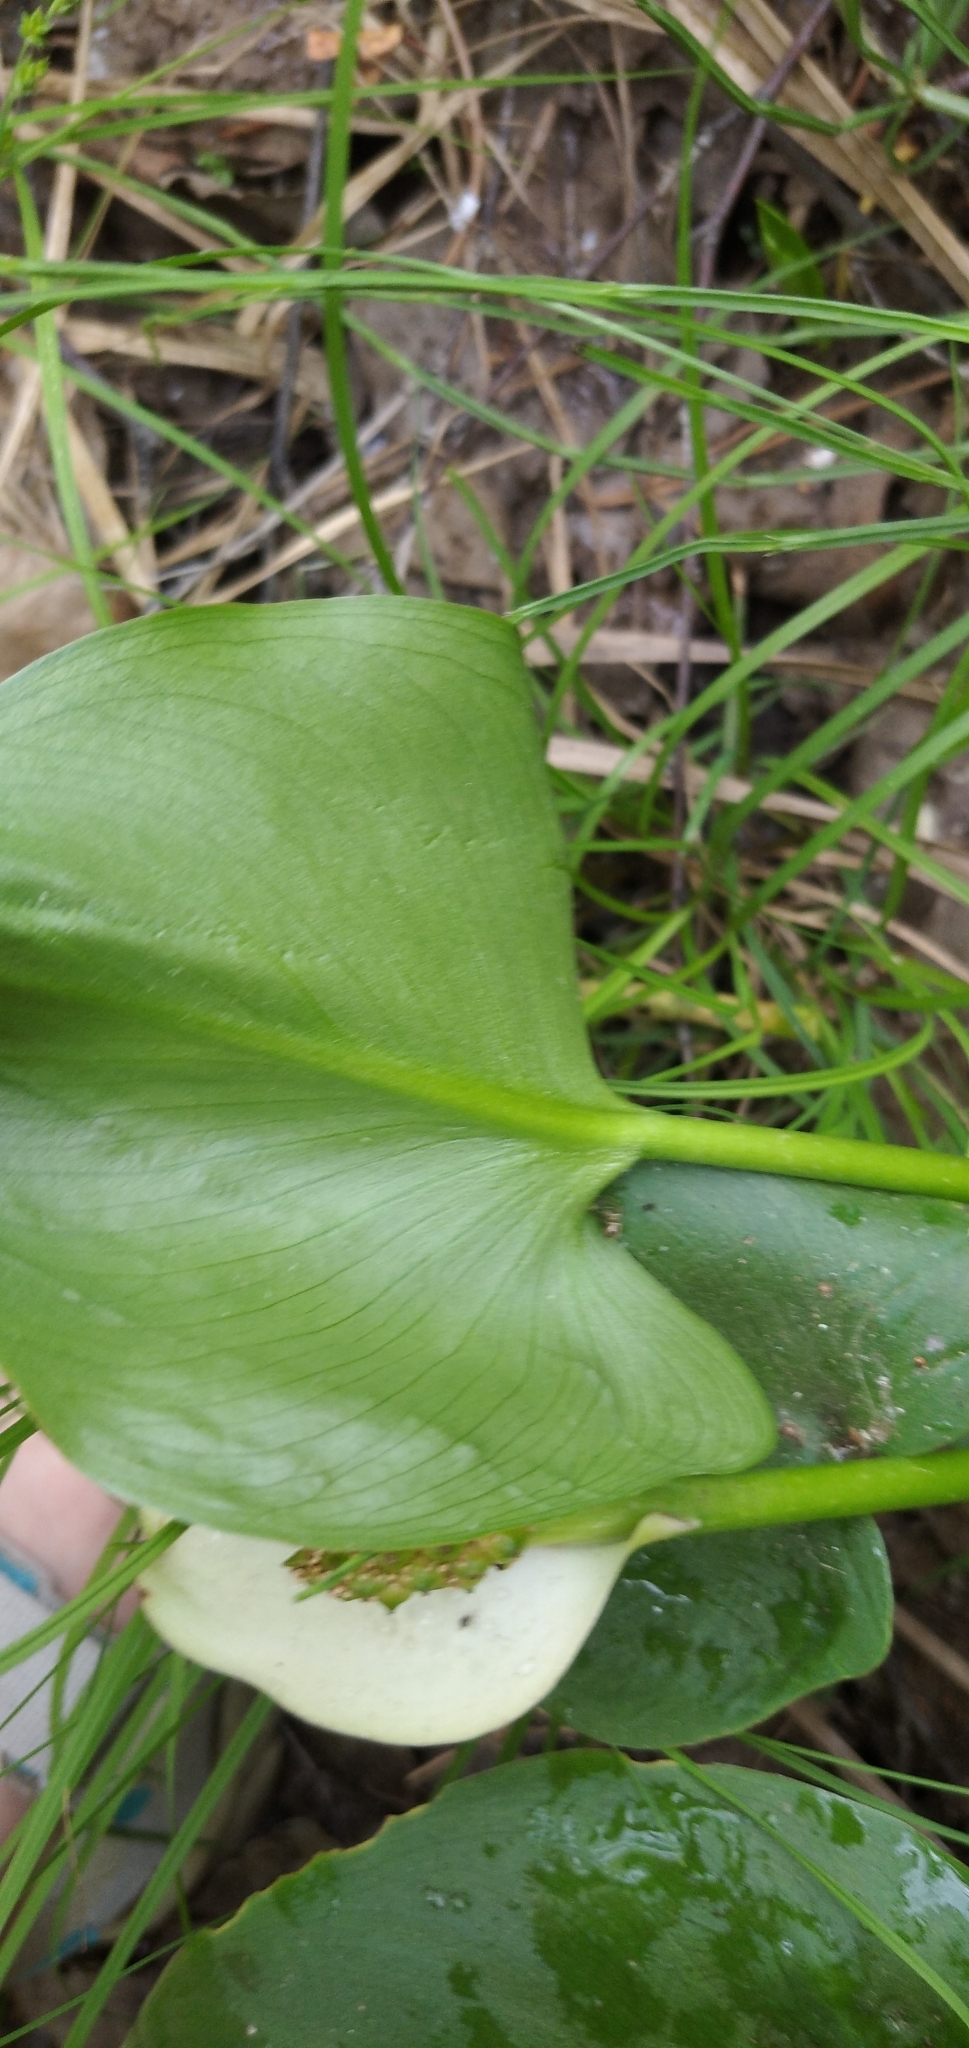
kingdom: Plantae
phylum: Tracheophyta
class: Liliopsida
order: Alismatales
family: Araceae
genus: Calla
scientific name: Calla palustris
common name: Bog arum
